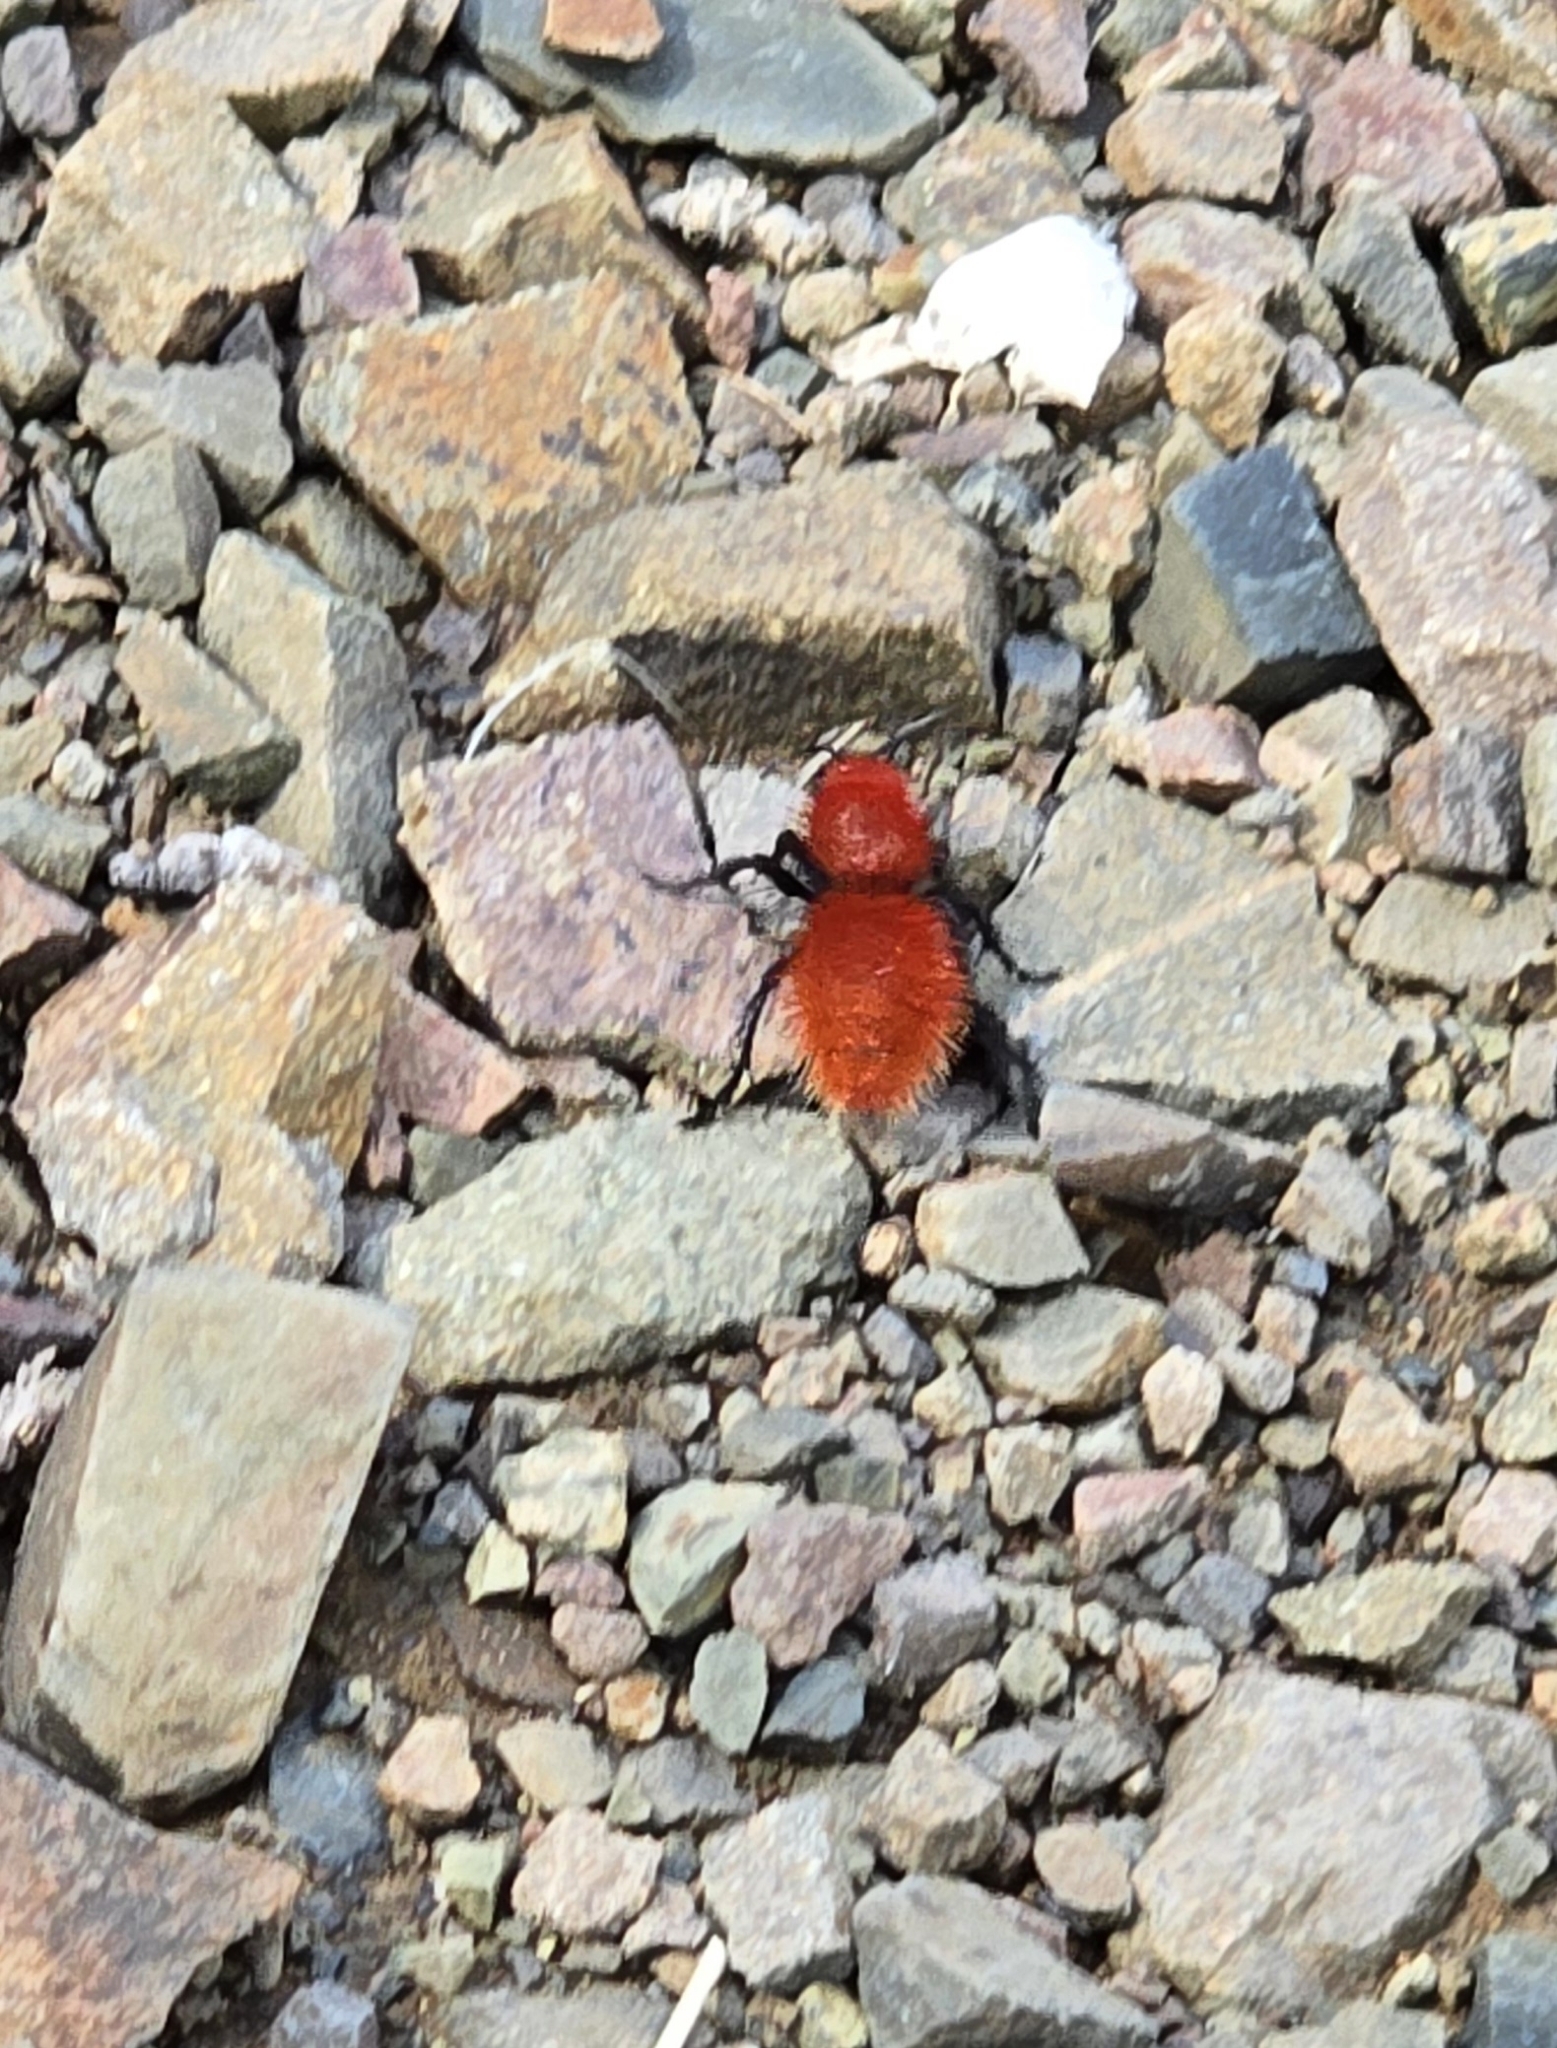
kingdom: Animalia
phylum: Arthropoda
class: Insecta
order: Hymenoptera
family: Mutillidae
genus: Dasymutilla
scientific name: Dasymutilla vestita
